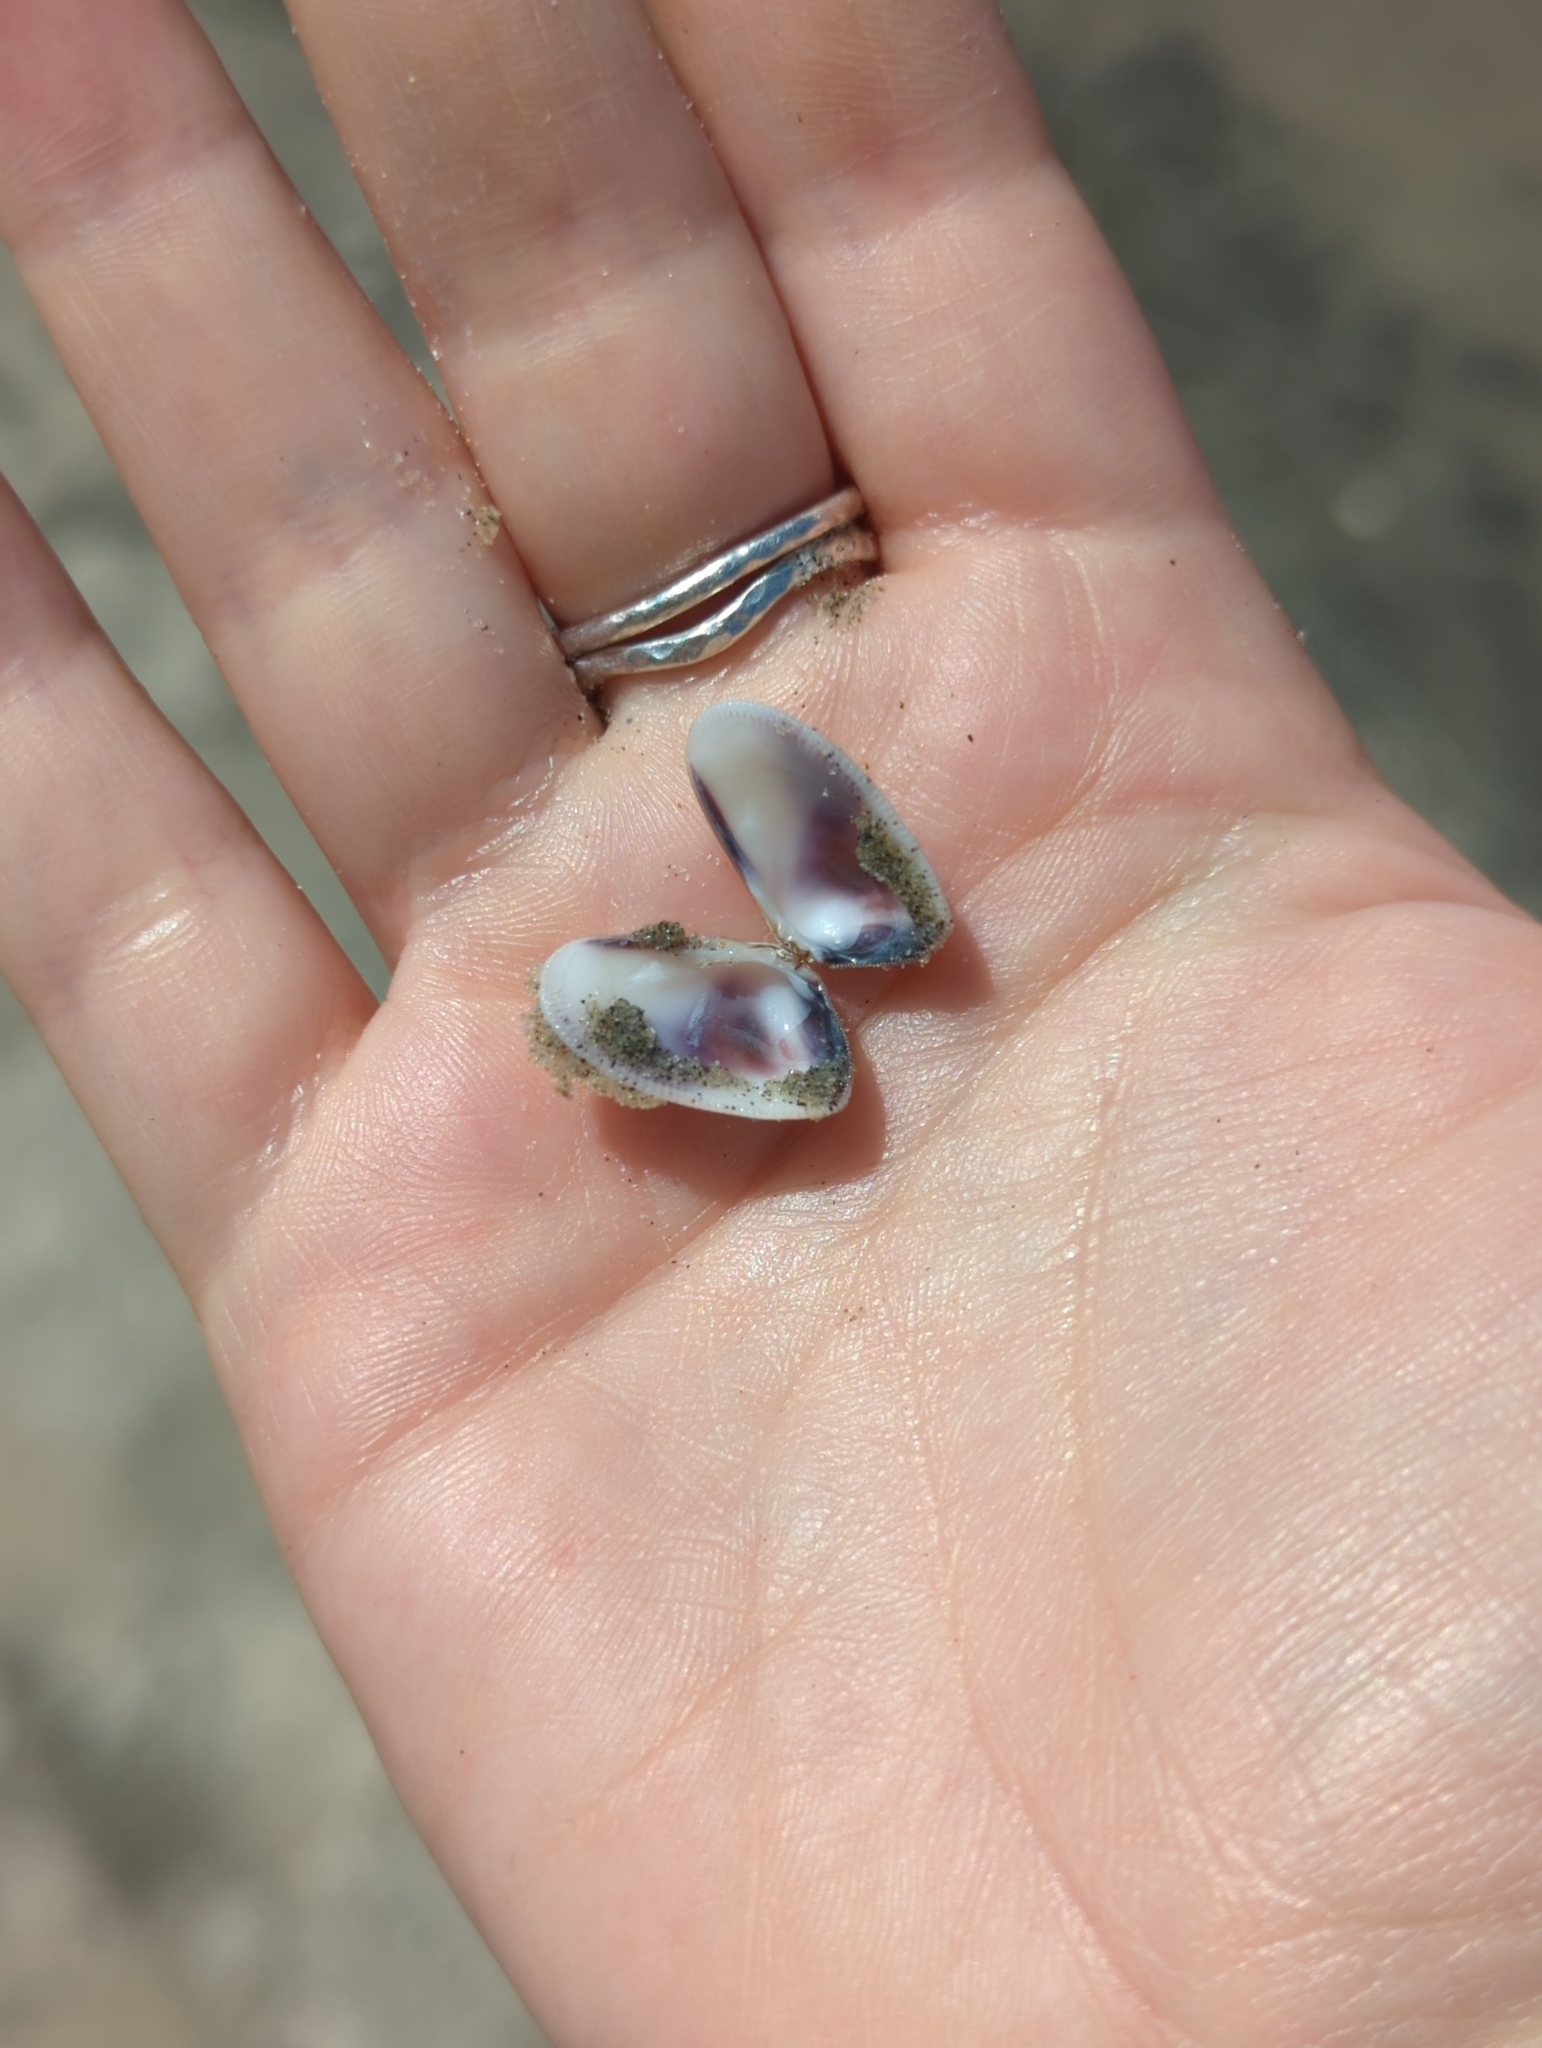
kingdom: Animalia
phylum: Mollusca
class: Bivalvia
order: Cardiida
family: Donacidae
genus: Donax
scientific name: Donax gouldii
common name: Gould beanclam
